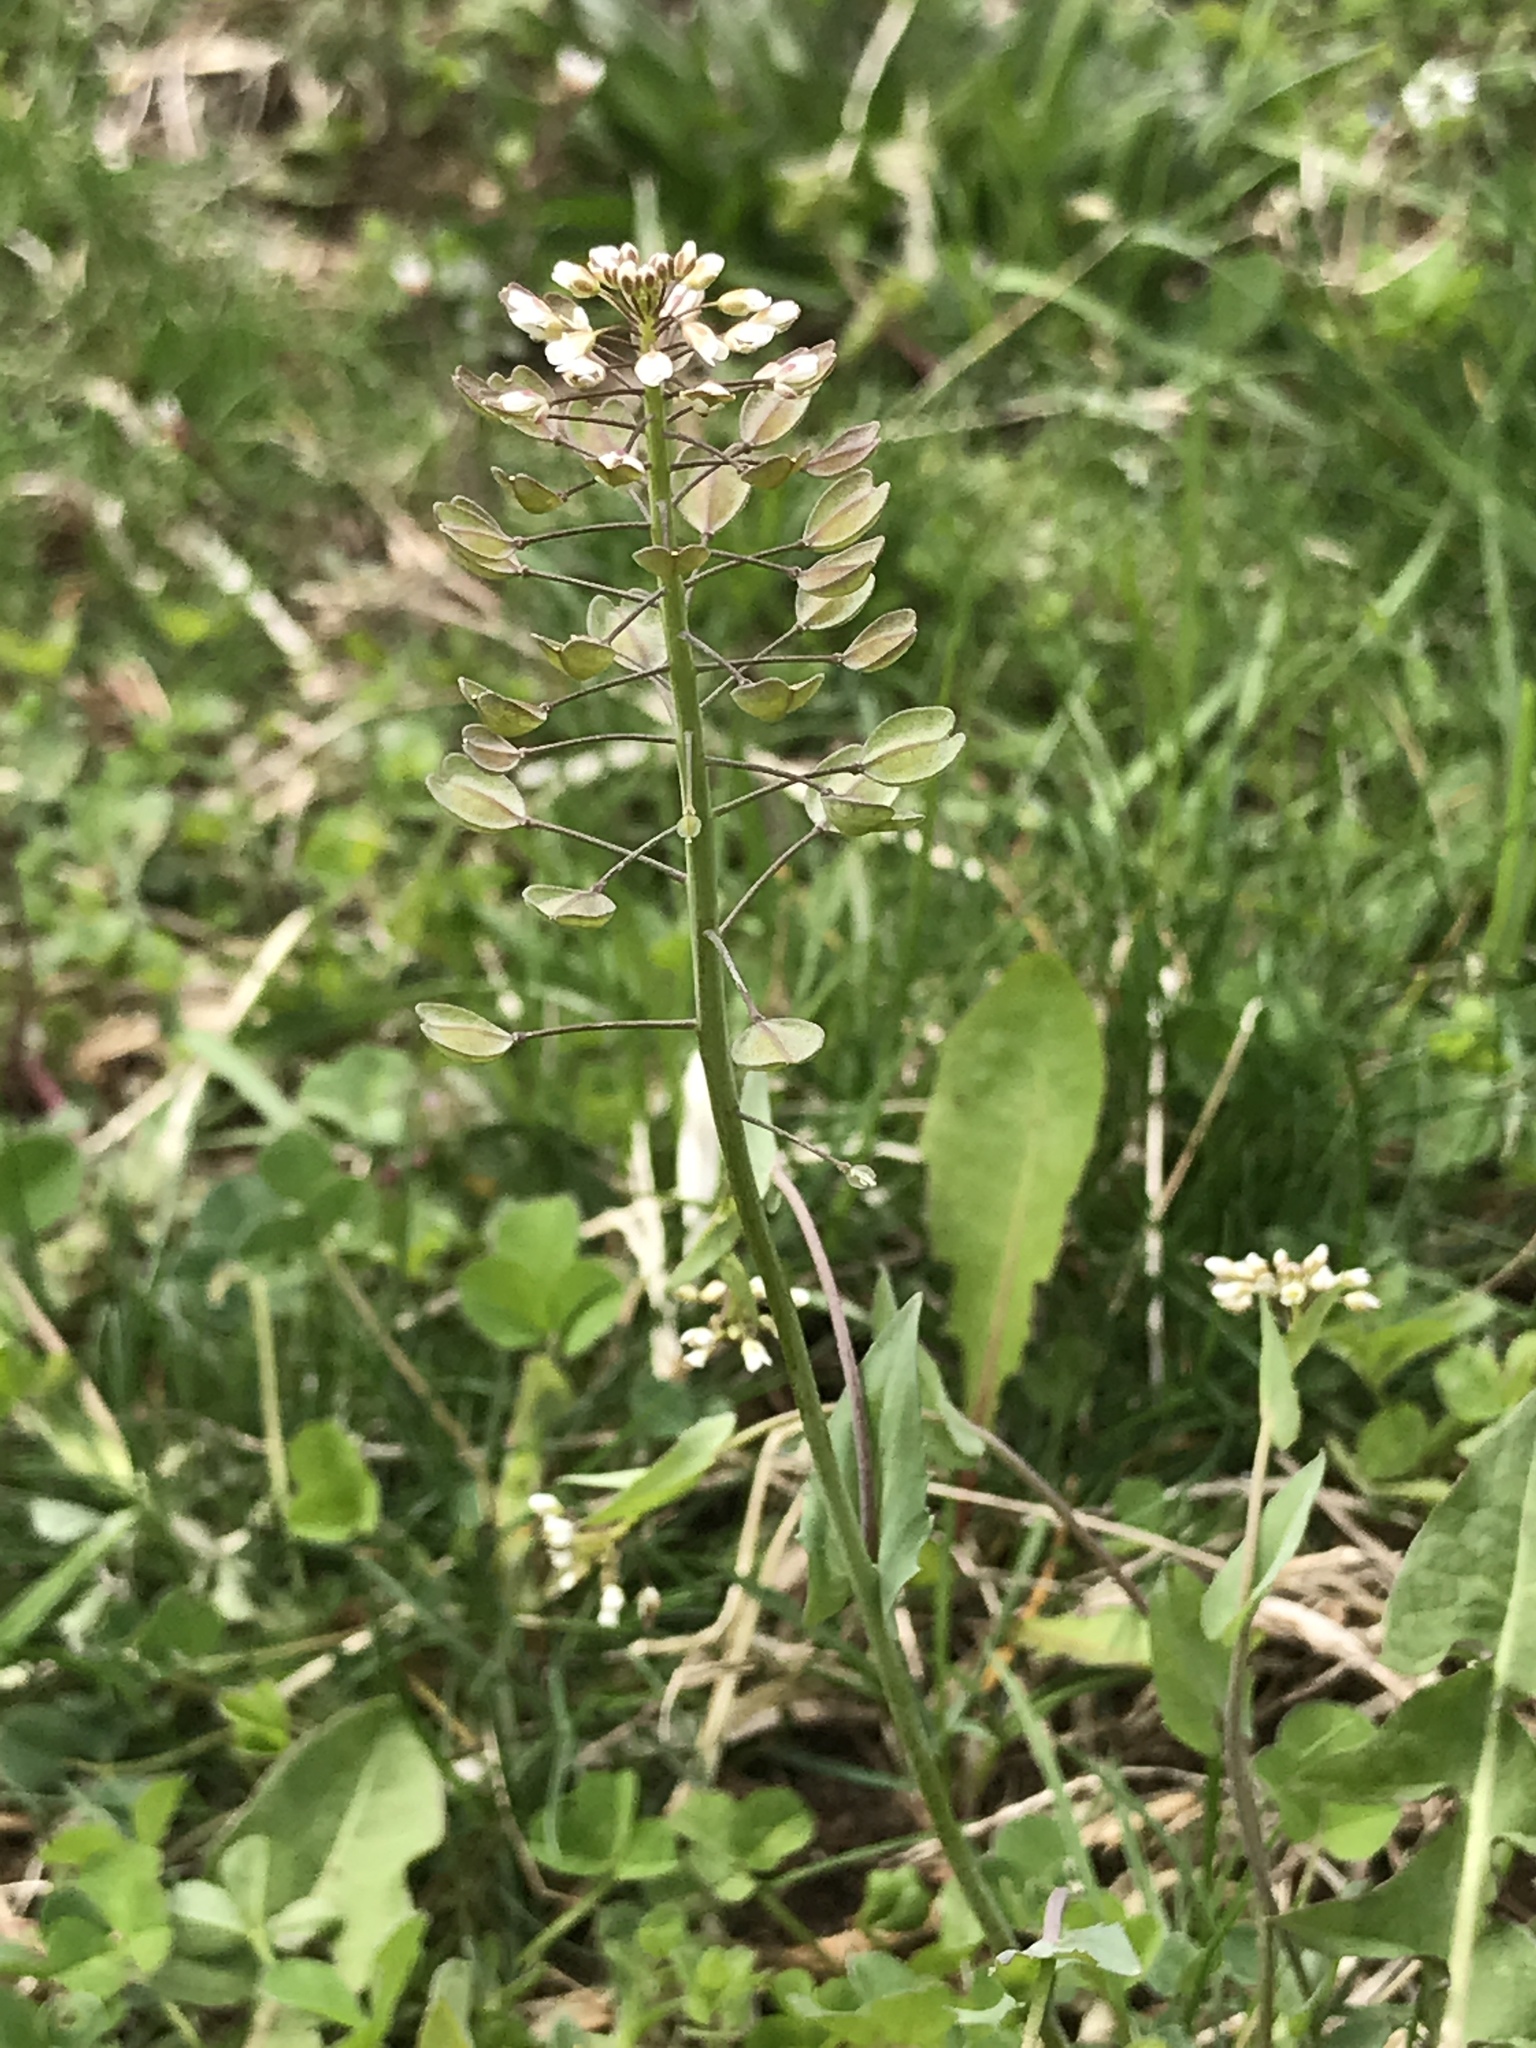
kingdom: Plantae
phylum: Tracheophyta
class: Magnoliopsida
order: Brassicales
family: Brassicaceae
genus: Noccaea
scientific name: Noccaea perfoliata
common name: Perfoliate pennycress
